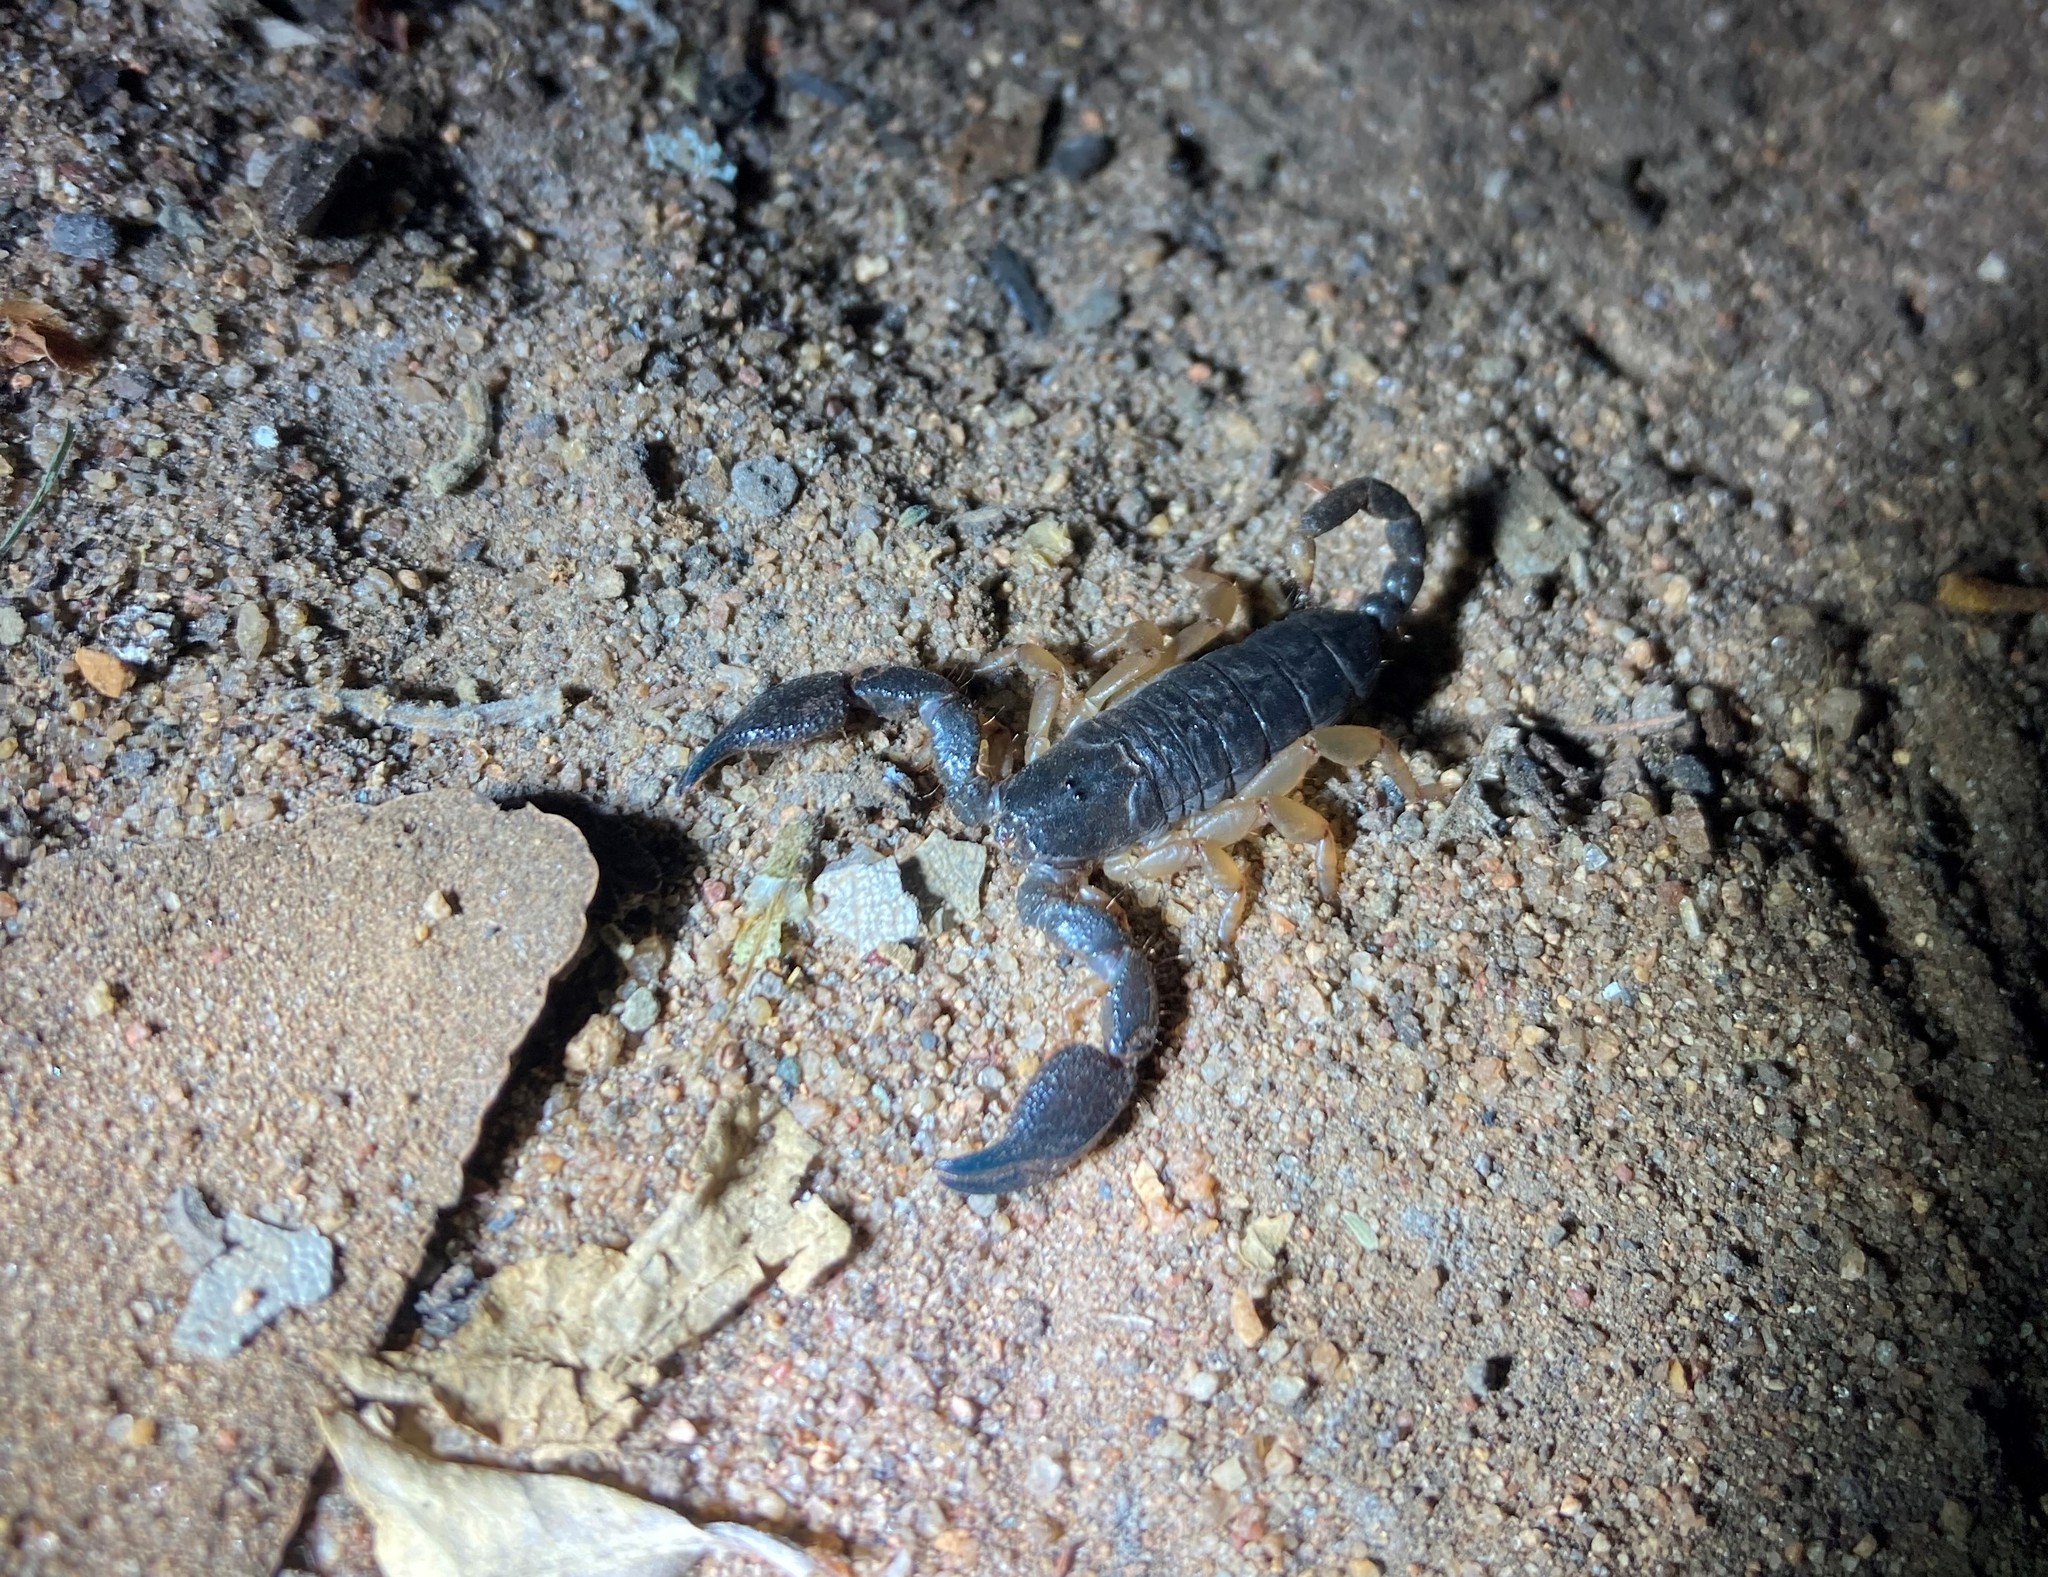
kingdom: Animalia
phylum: Arthropoda
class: Arachnida
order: Scorpiones
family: Hormuridae
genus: Opisthacanthus
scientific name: Opisthacanthus asper
